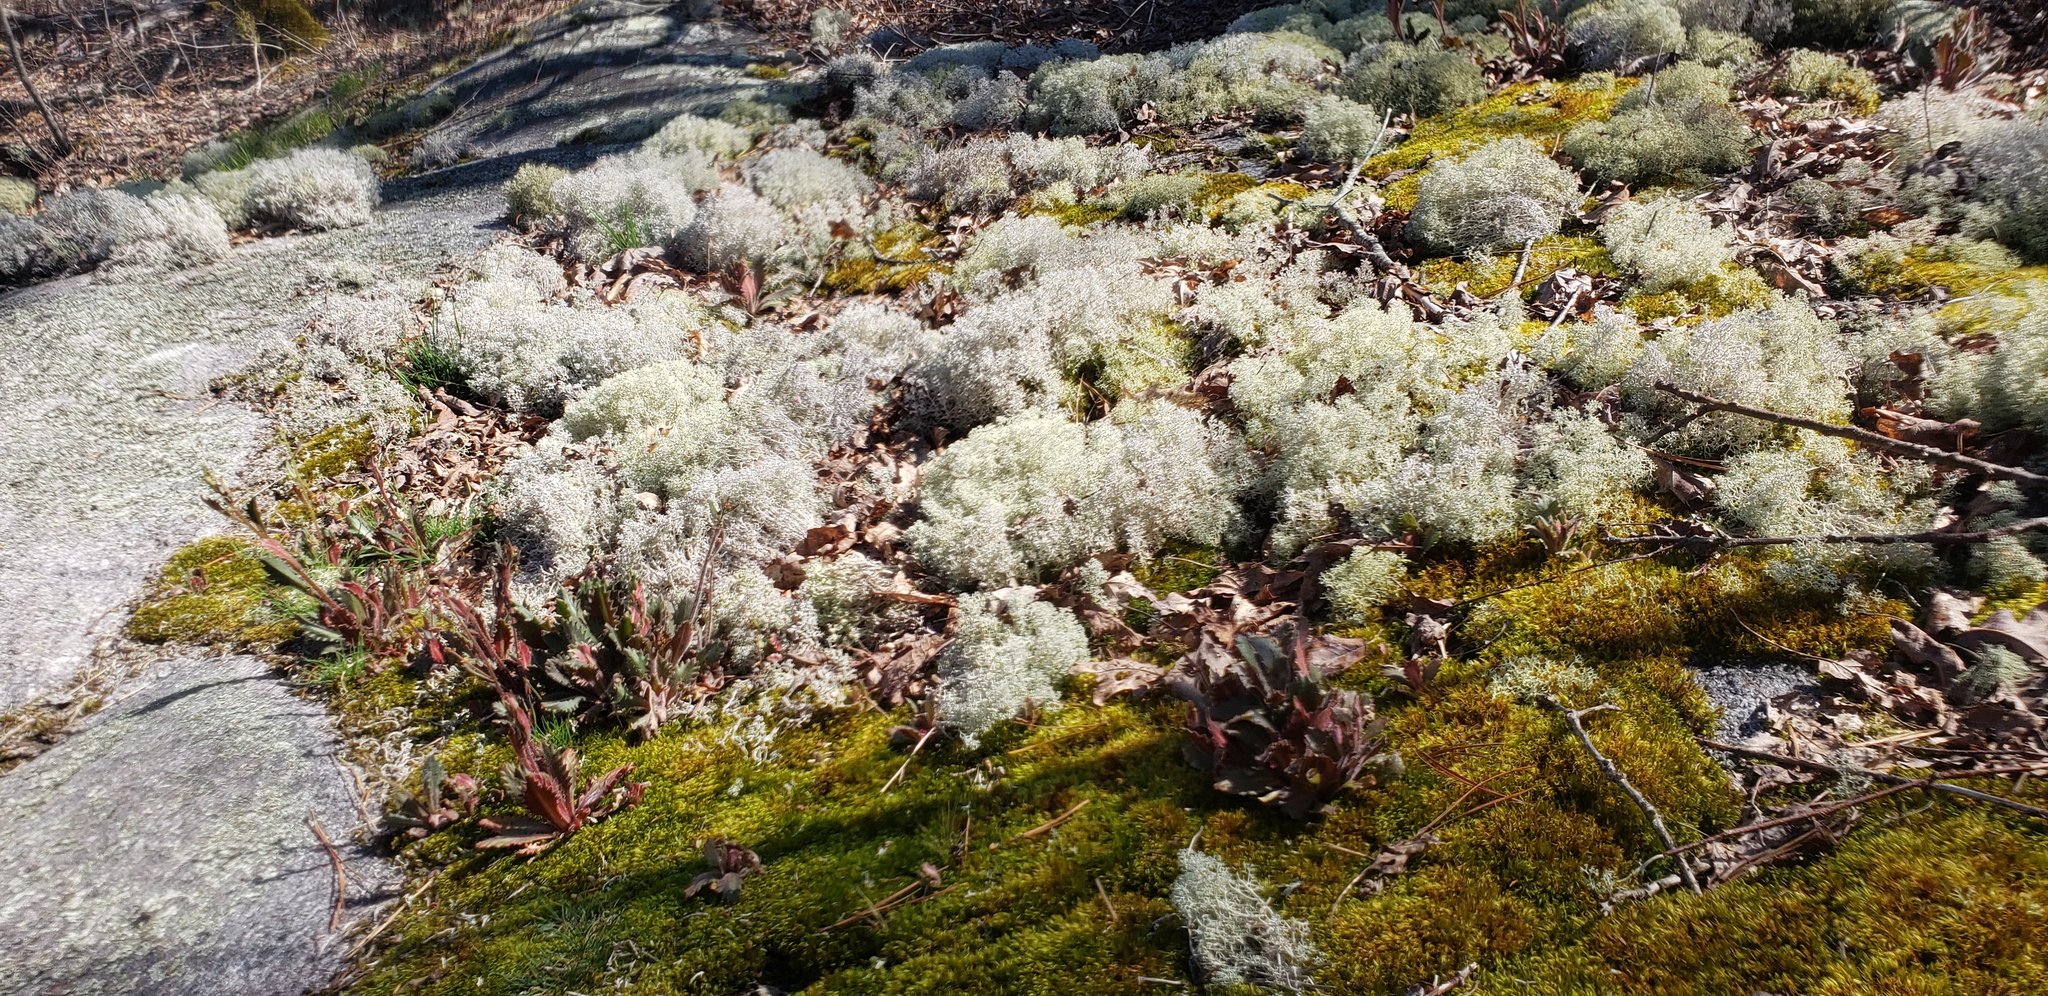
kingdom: Plantae
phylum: Tracheophyta
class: Magnoliopsida
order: Saxifragales
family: Saxifragaceae
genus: Micranthes
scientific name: Micranthes petiolaris
